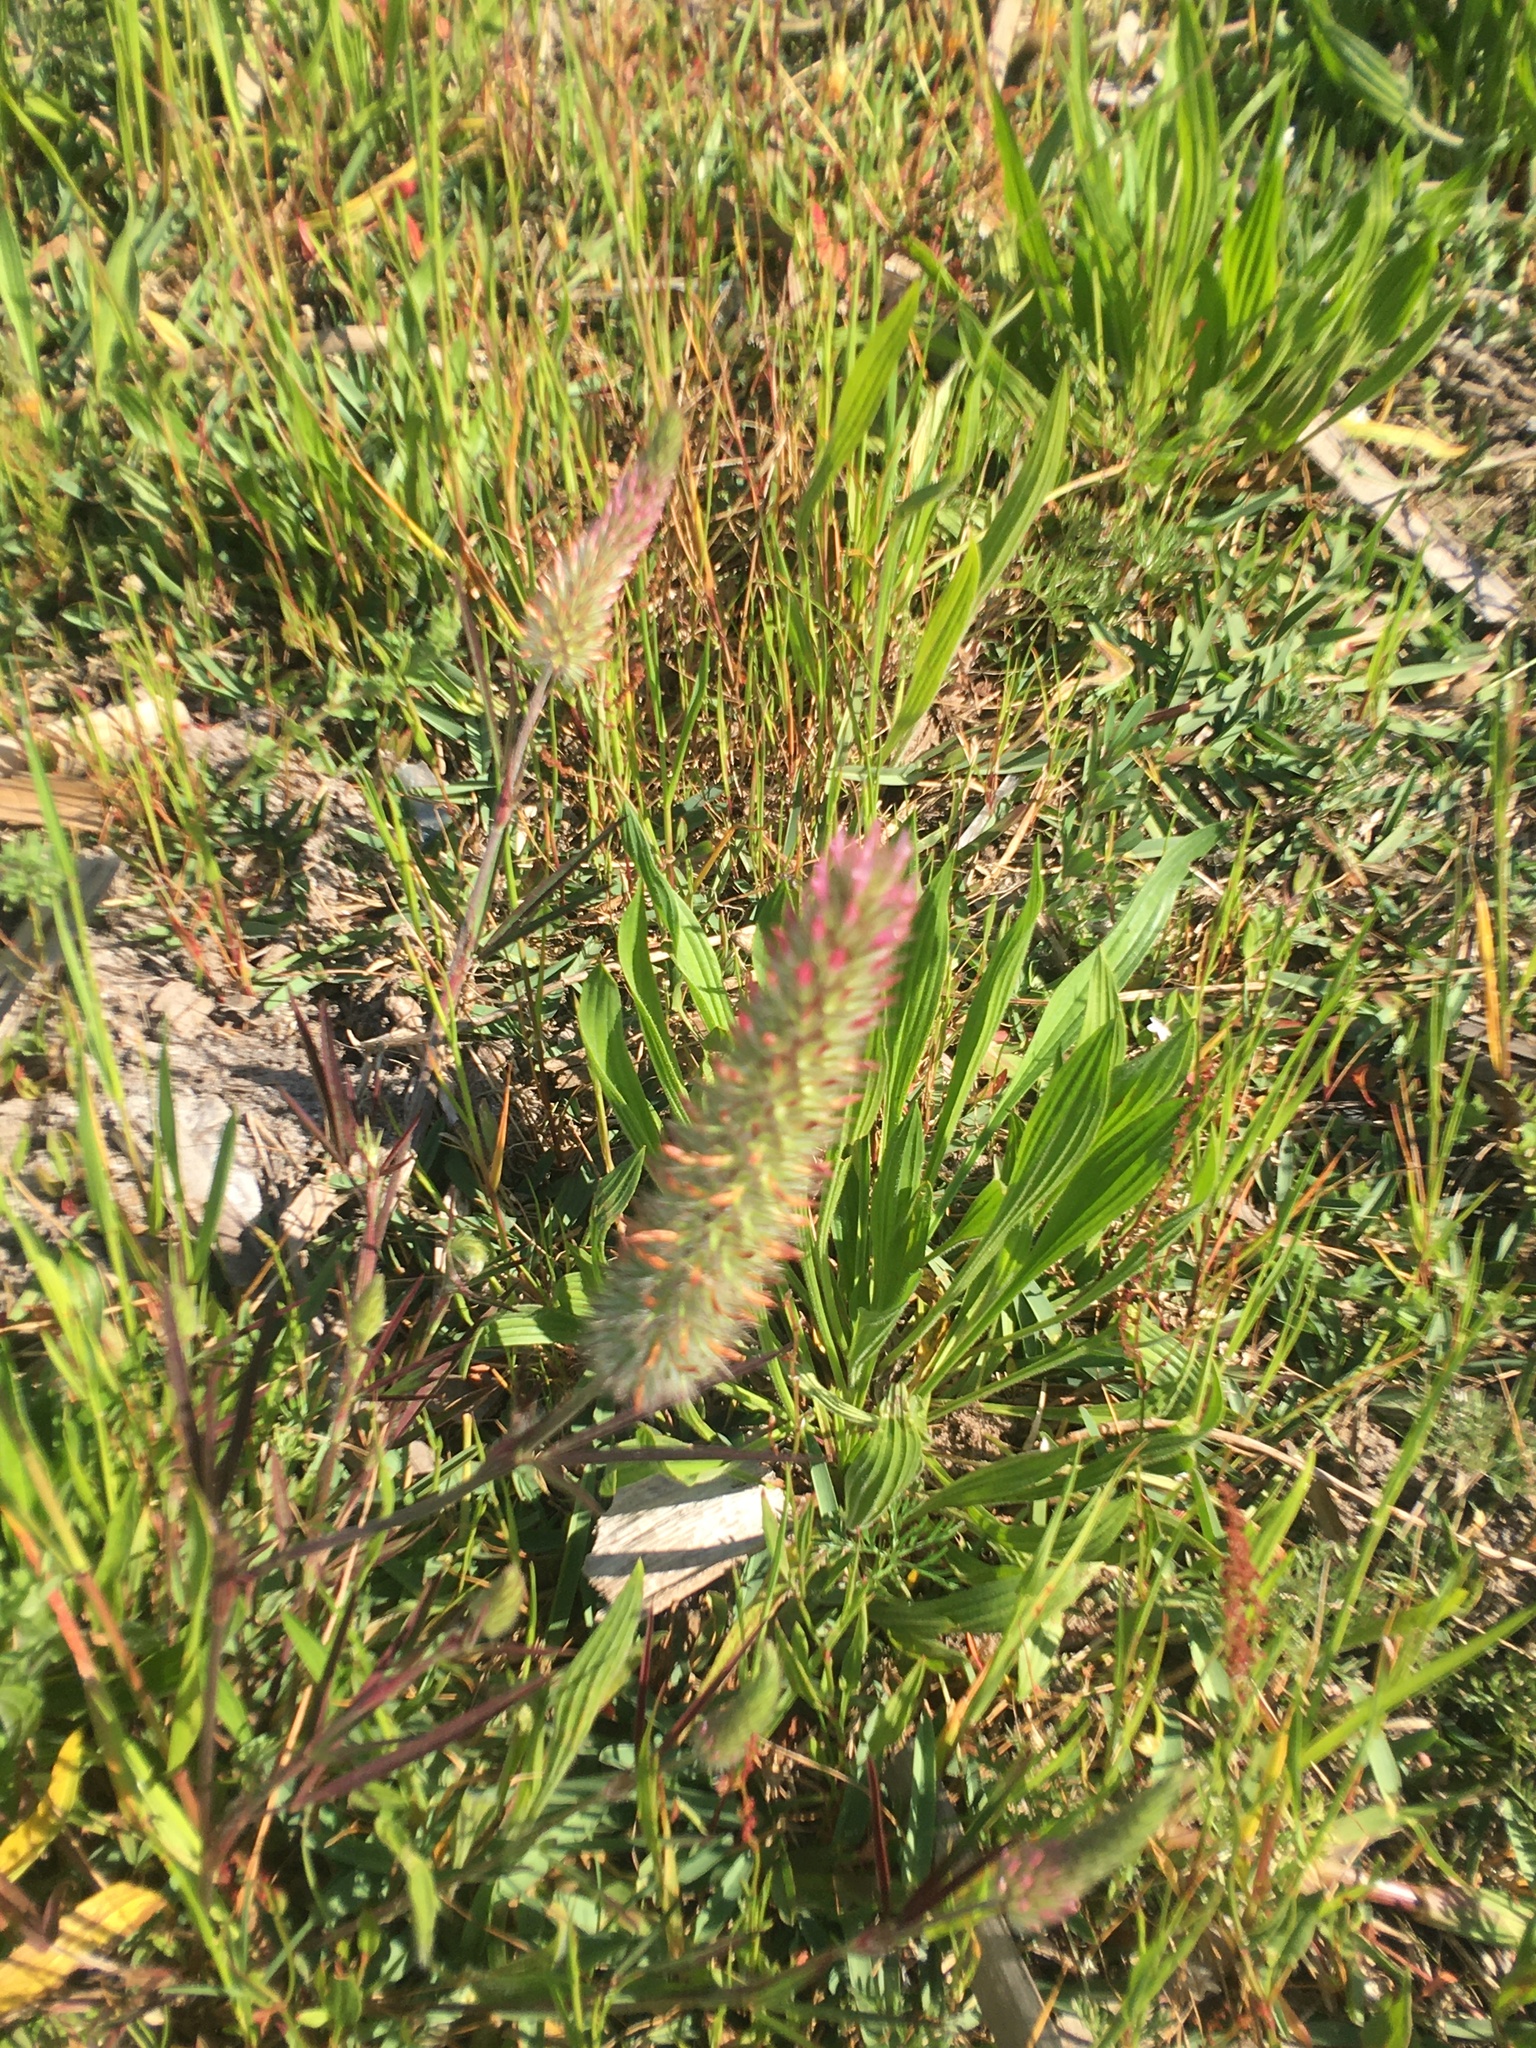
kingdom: Plantae
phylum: Tracheophyta
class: Magnoliopsida
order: Fabales
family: Fabaceae
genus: Trifolium
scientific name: Trifolium angustifolium
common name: Narrow clover
